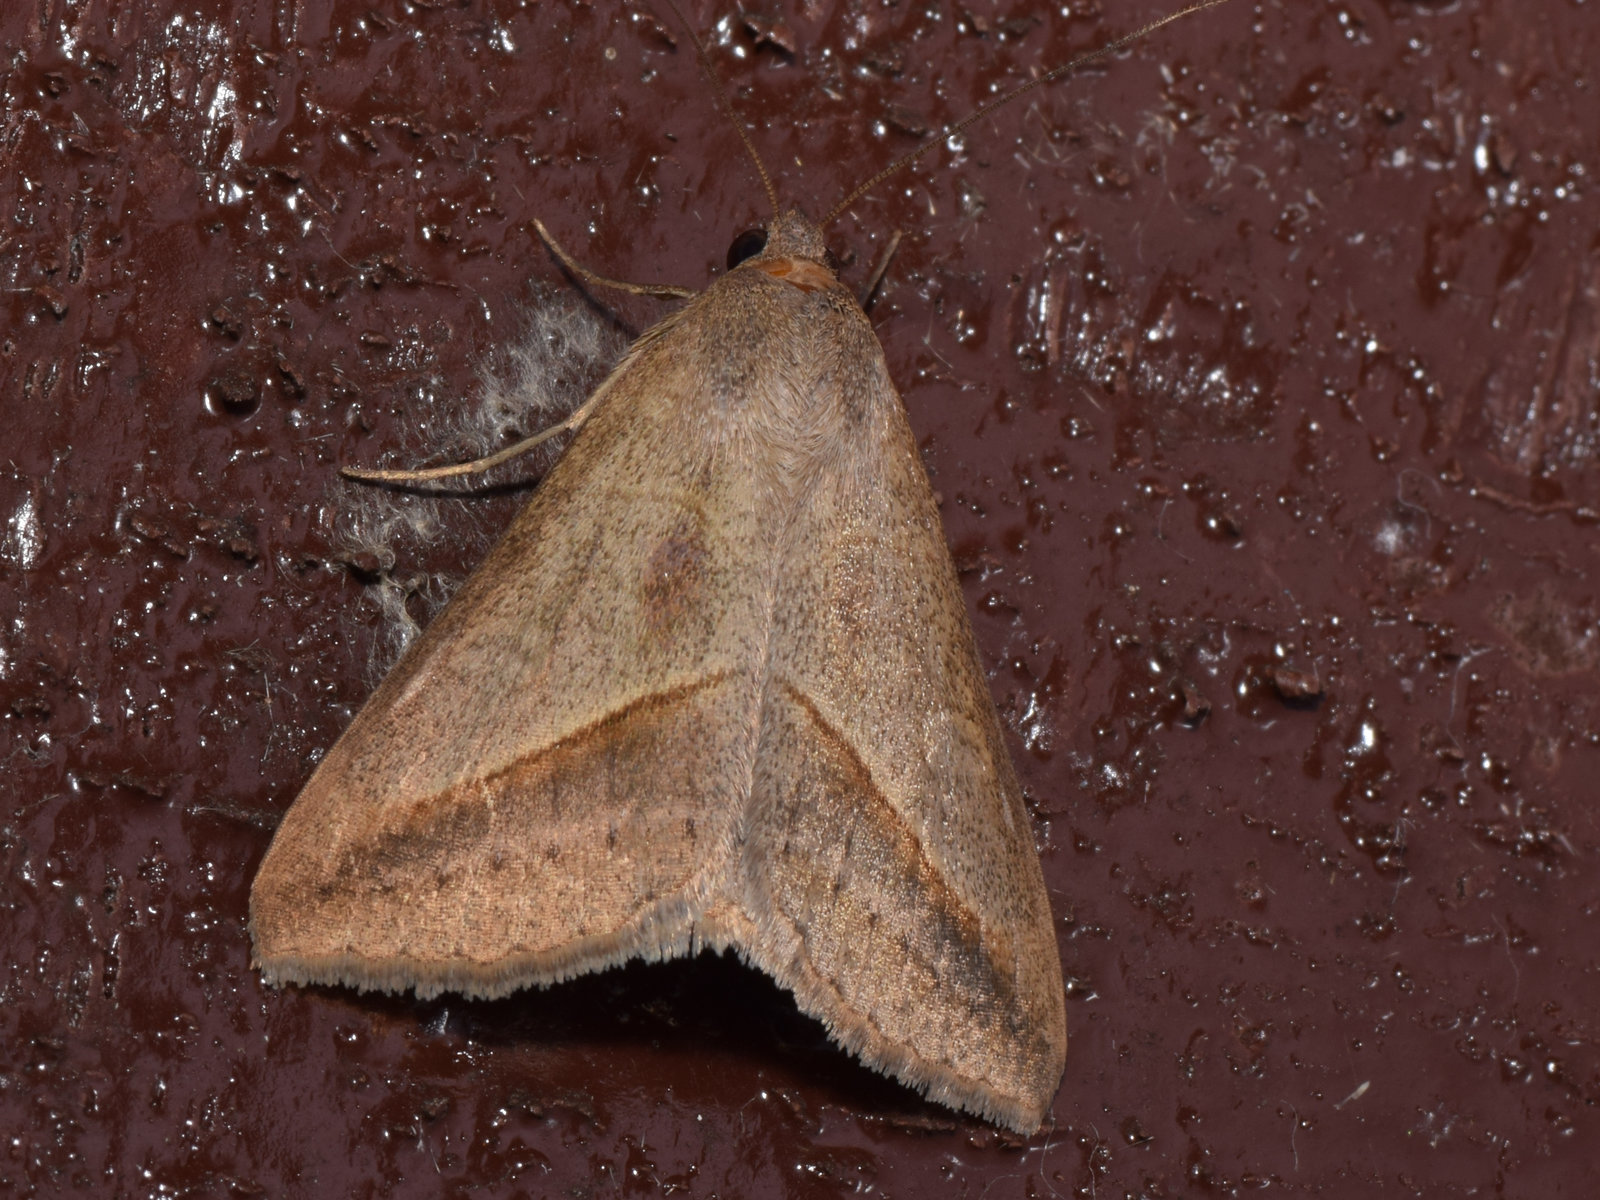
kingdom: Animalia
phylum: Arthropoda
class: Insecta
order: Lepidoptera
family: Erebidae
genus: Mocis
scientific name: Mocis frugalis
